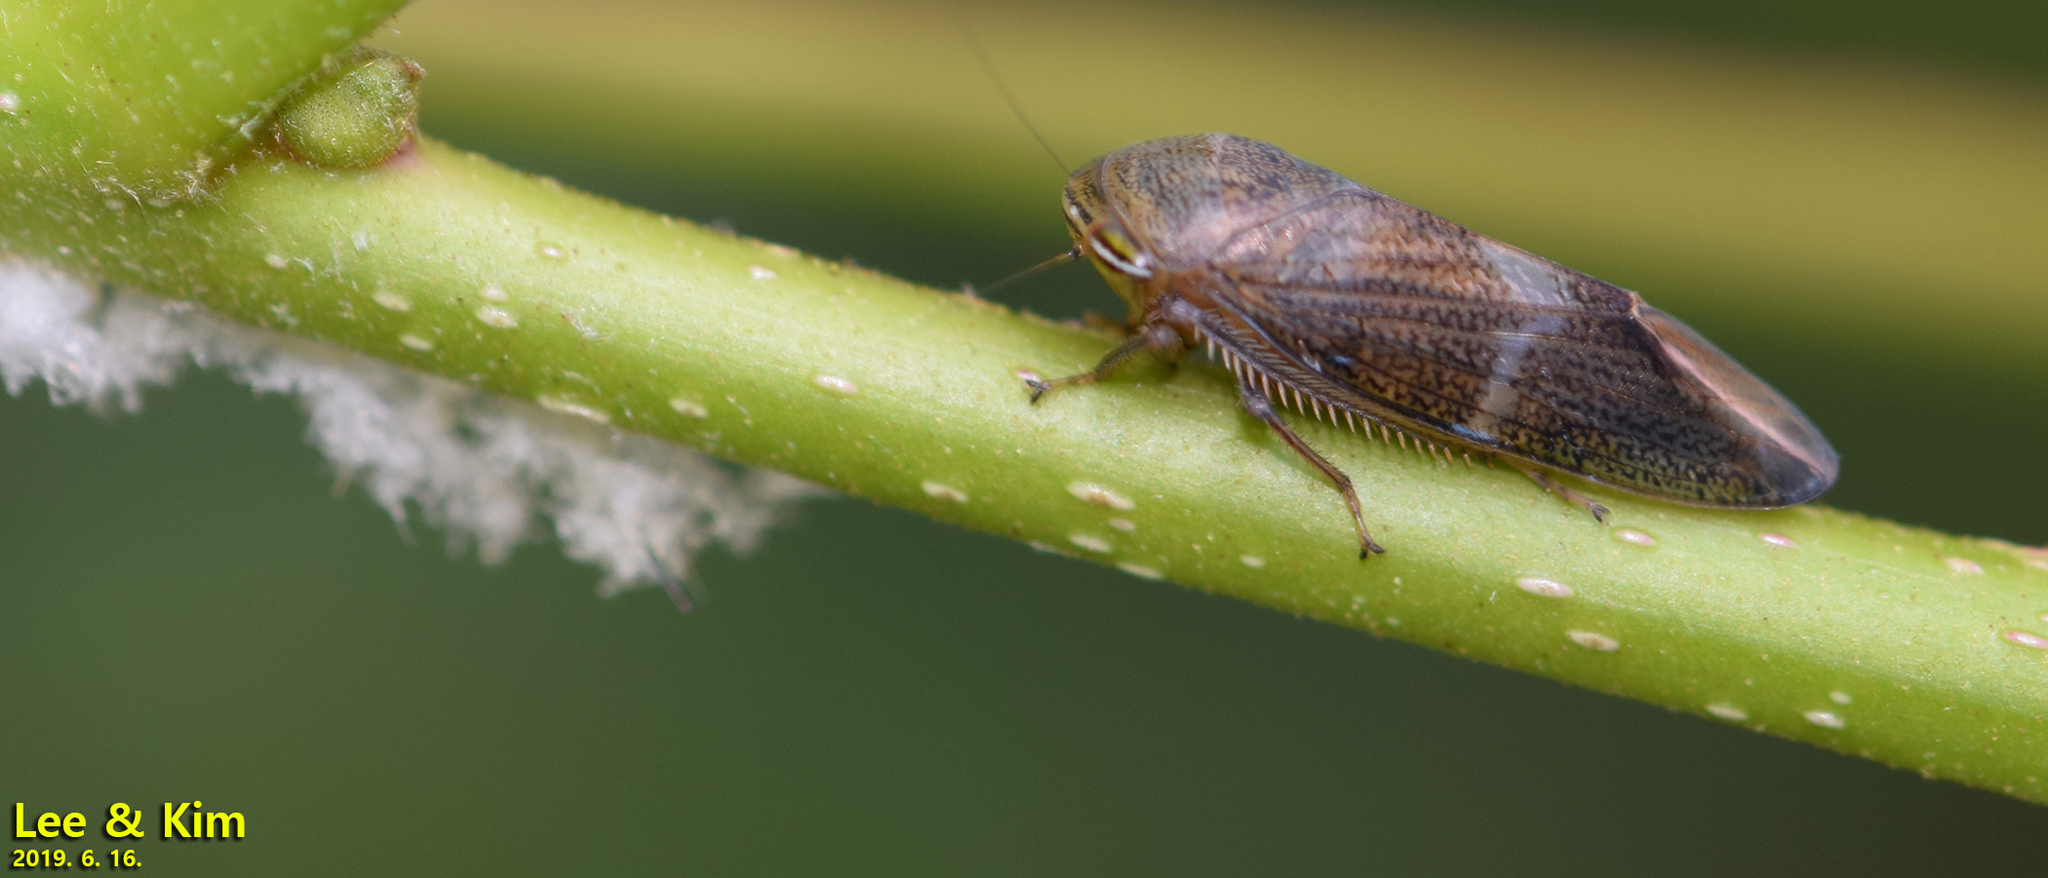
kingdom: Animalia
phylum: Arthropoda
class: Insecta
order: Hemiptera
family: Cicadellidae
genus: Drabescus
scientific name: Drabescus
